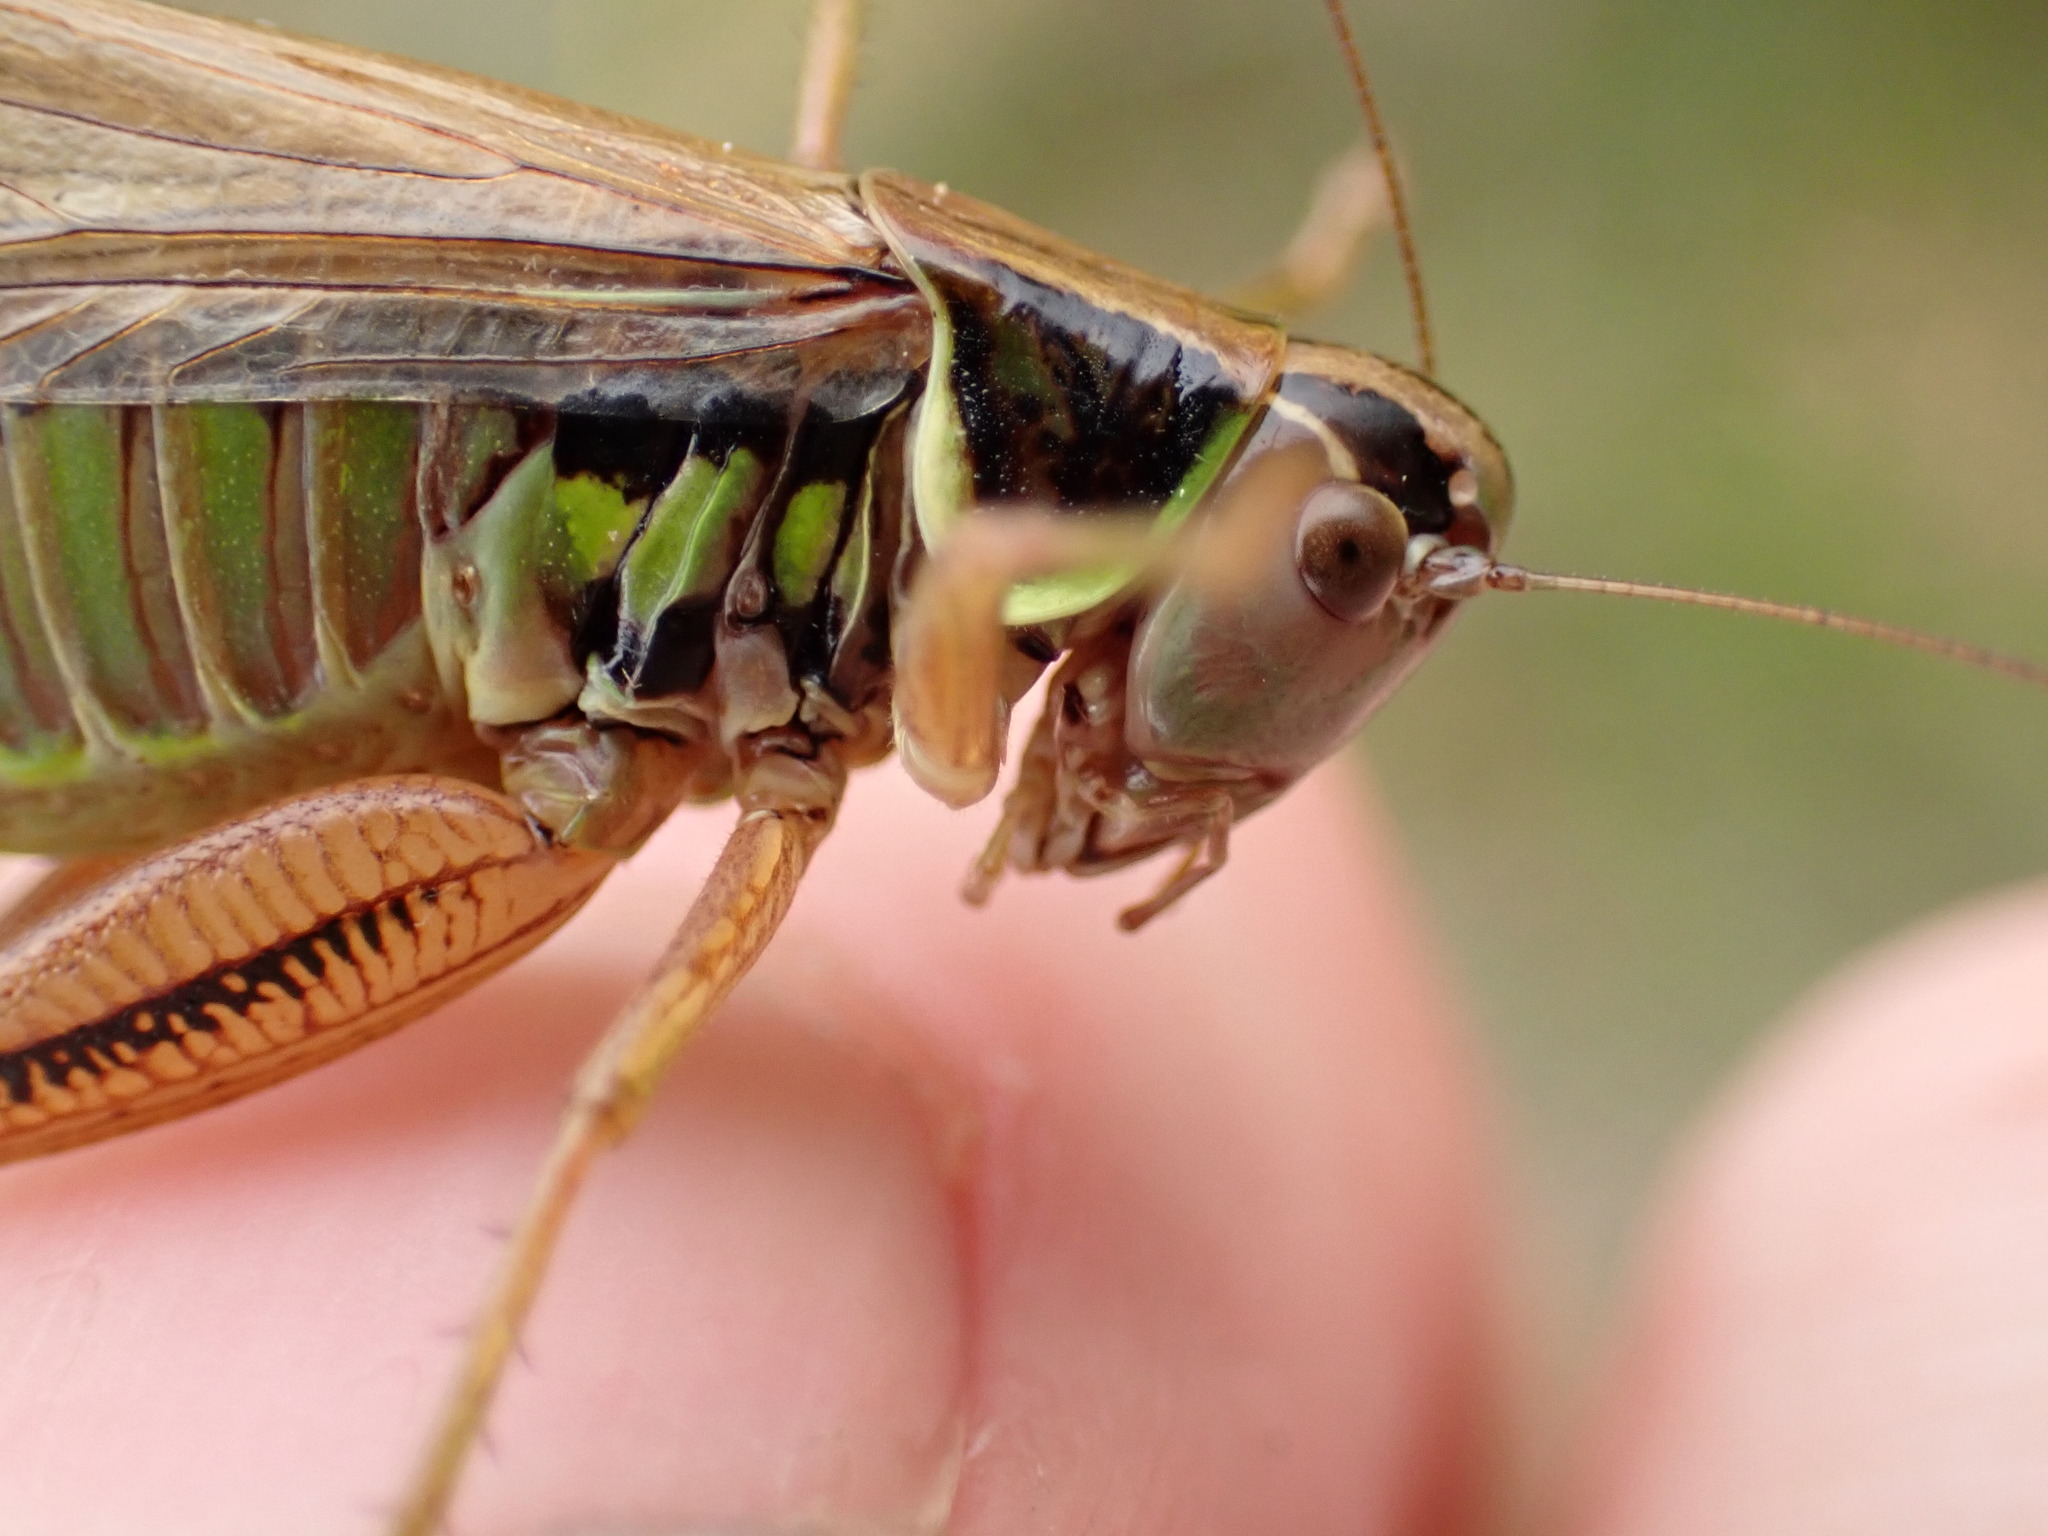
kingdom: Animalia
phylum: Arthropoda
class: Insecta
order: Orthoptera
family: Tettigoniidae
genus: Roeseliana
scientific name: Roeseliana roeselii
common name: Roesel's bush cricket
